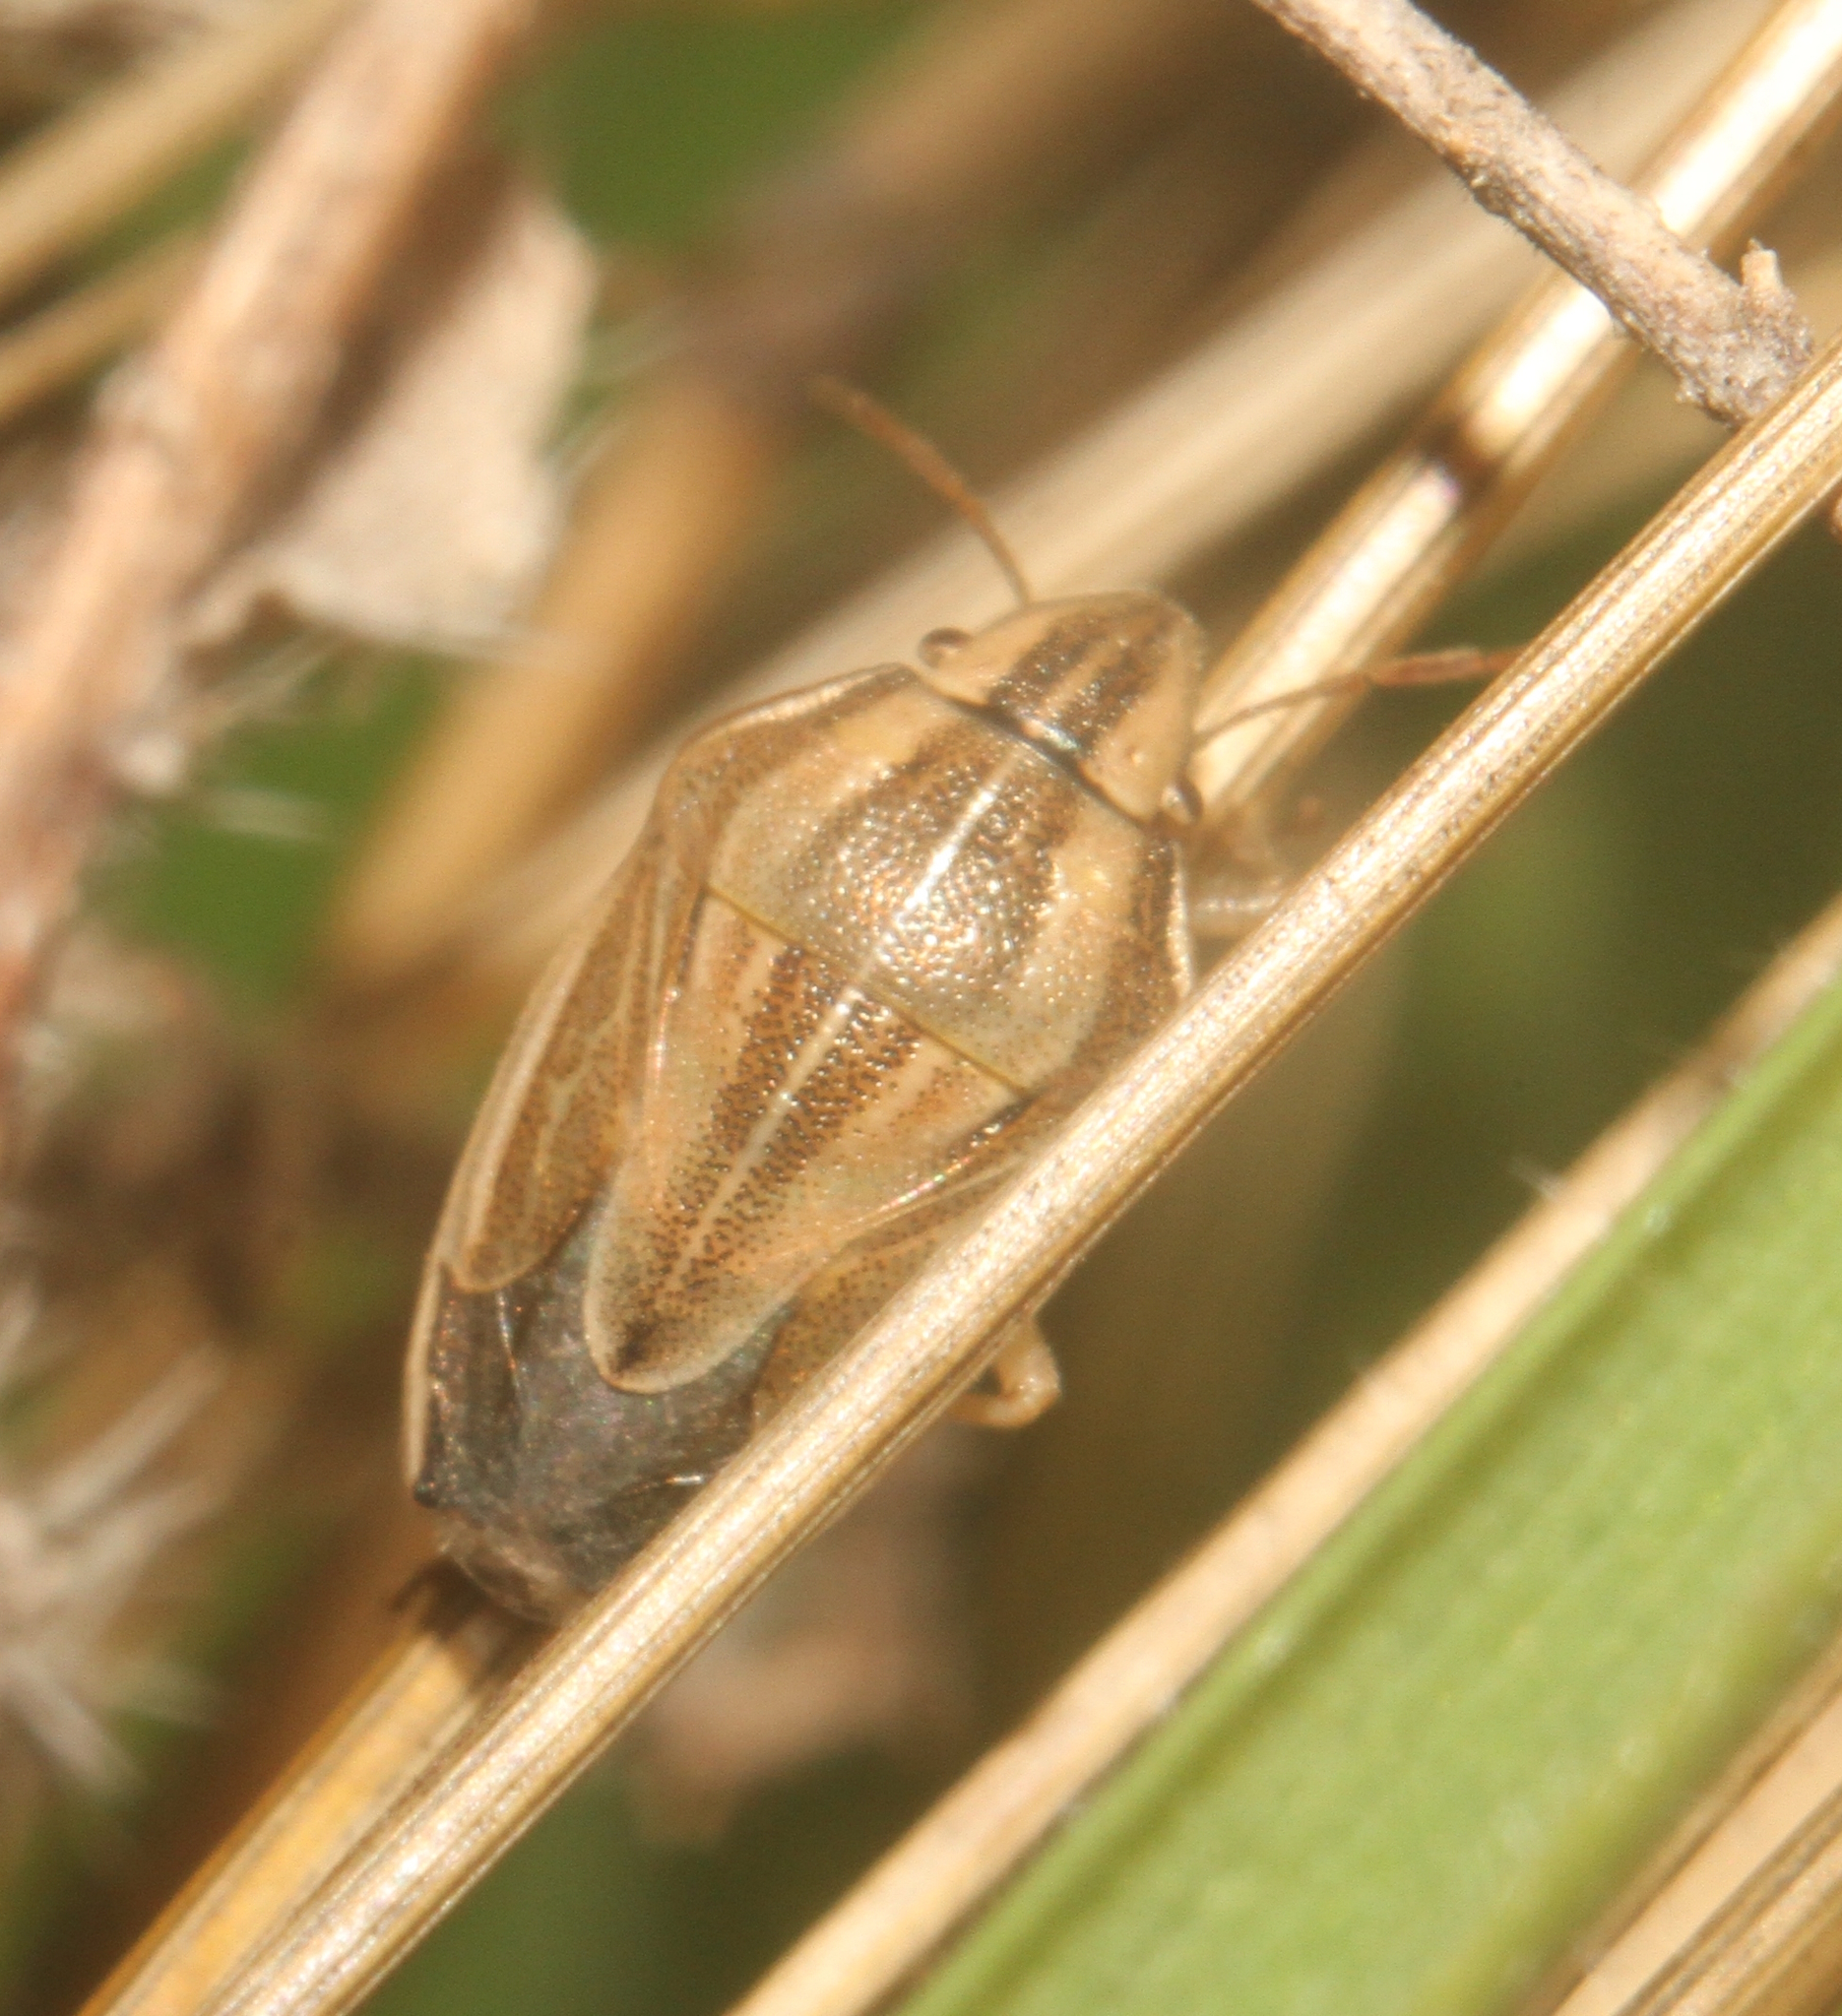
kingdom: Animalia
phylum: Arthropoda
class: Insecta
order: Hemiptera
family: Pentatomidae
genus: Aelia
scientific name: Aelia acuminata
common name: Bishop's mitre
